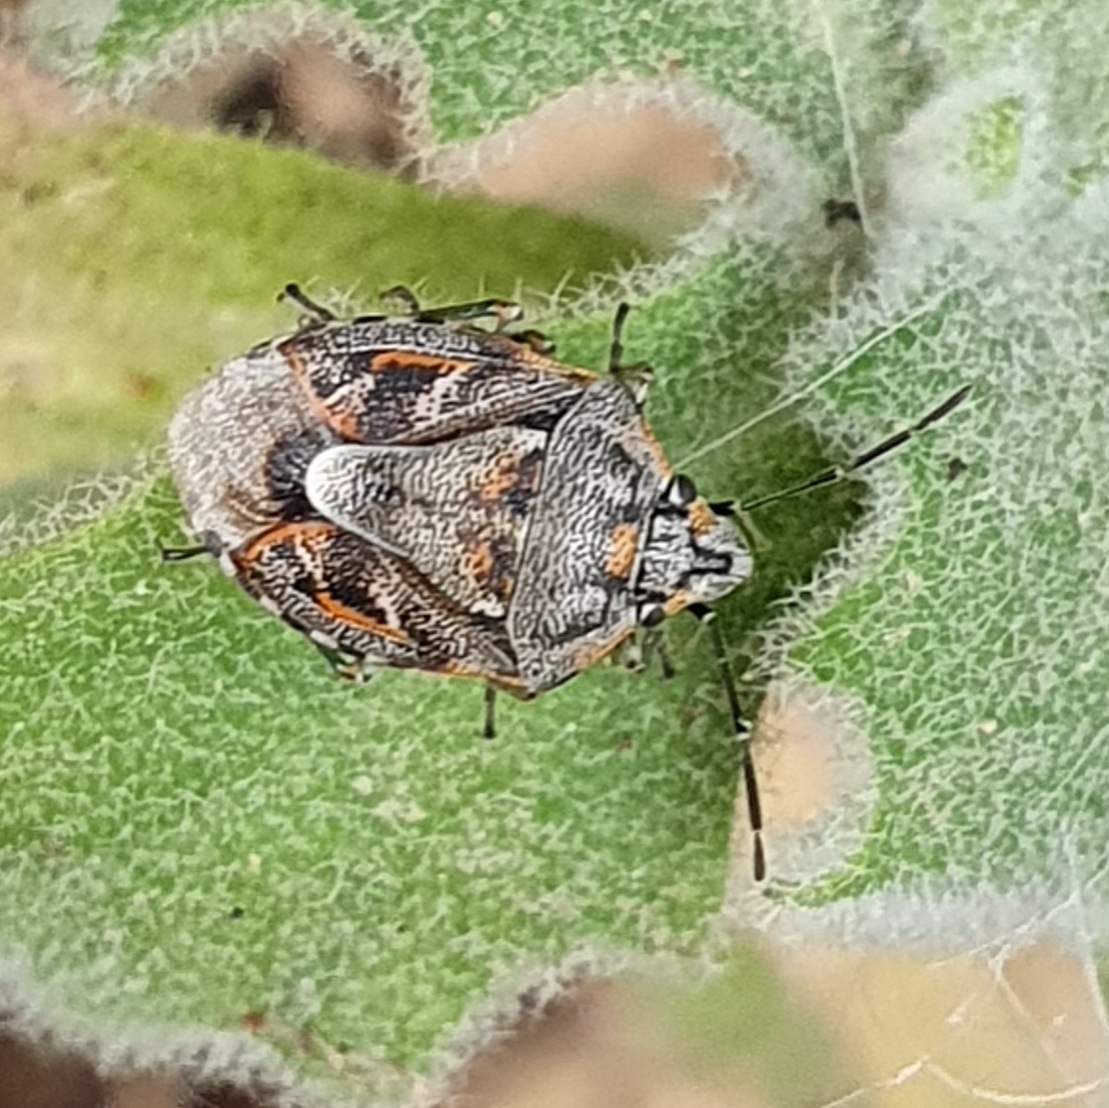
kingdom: Animalia
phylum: Arthropoda
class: Insecta
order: Hemiptera
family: Pentatomidae
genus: Holcogaster
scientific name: Holcogaster fibulata
